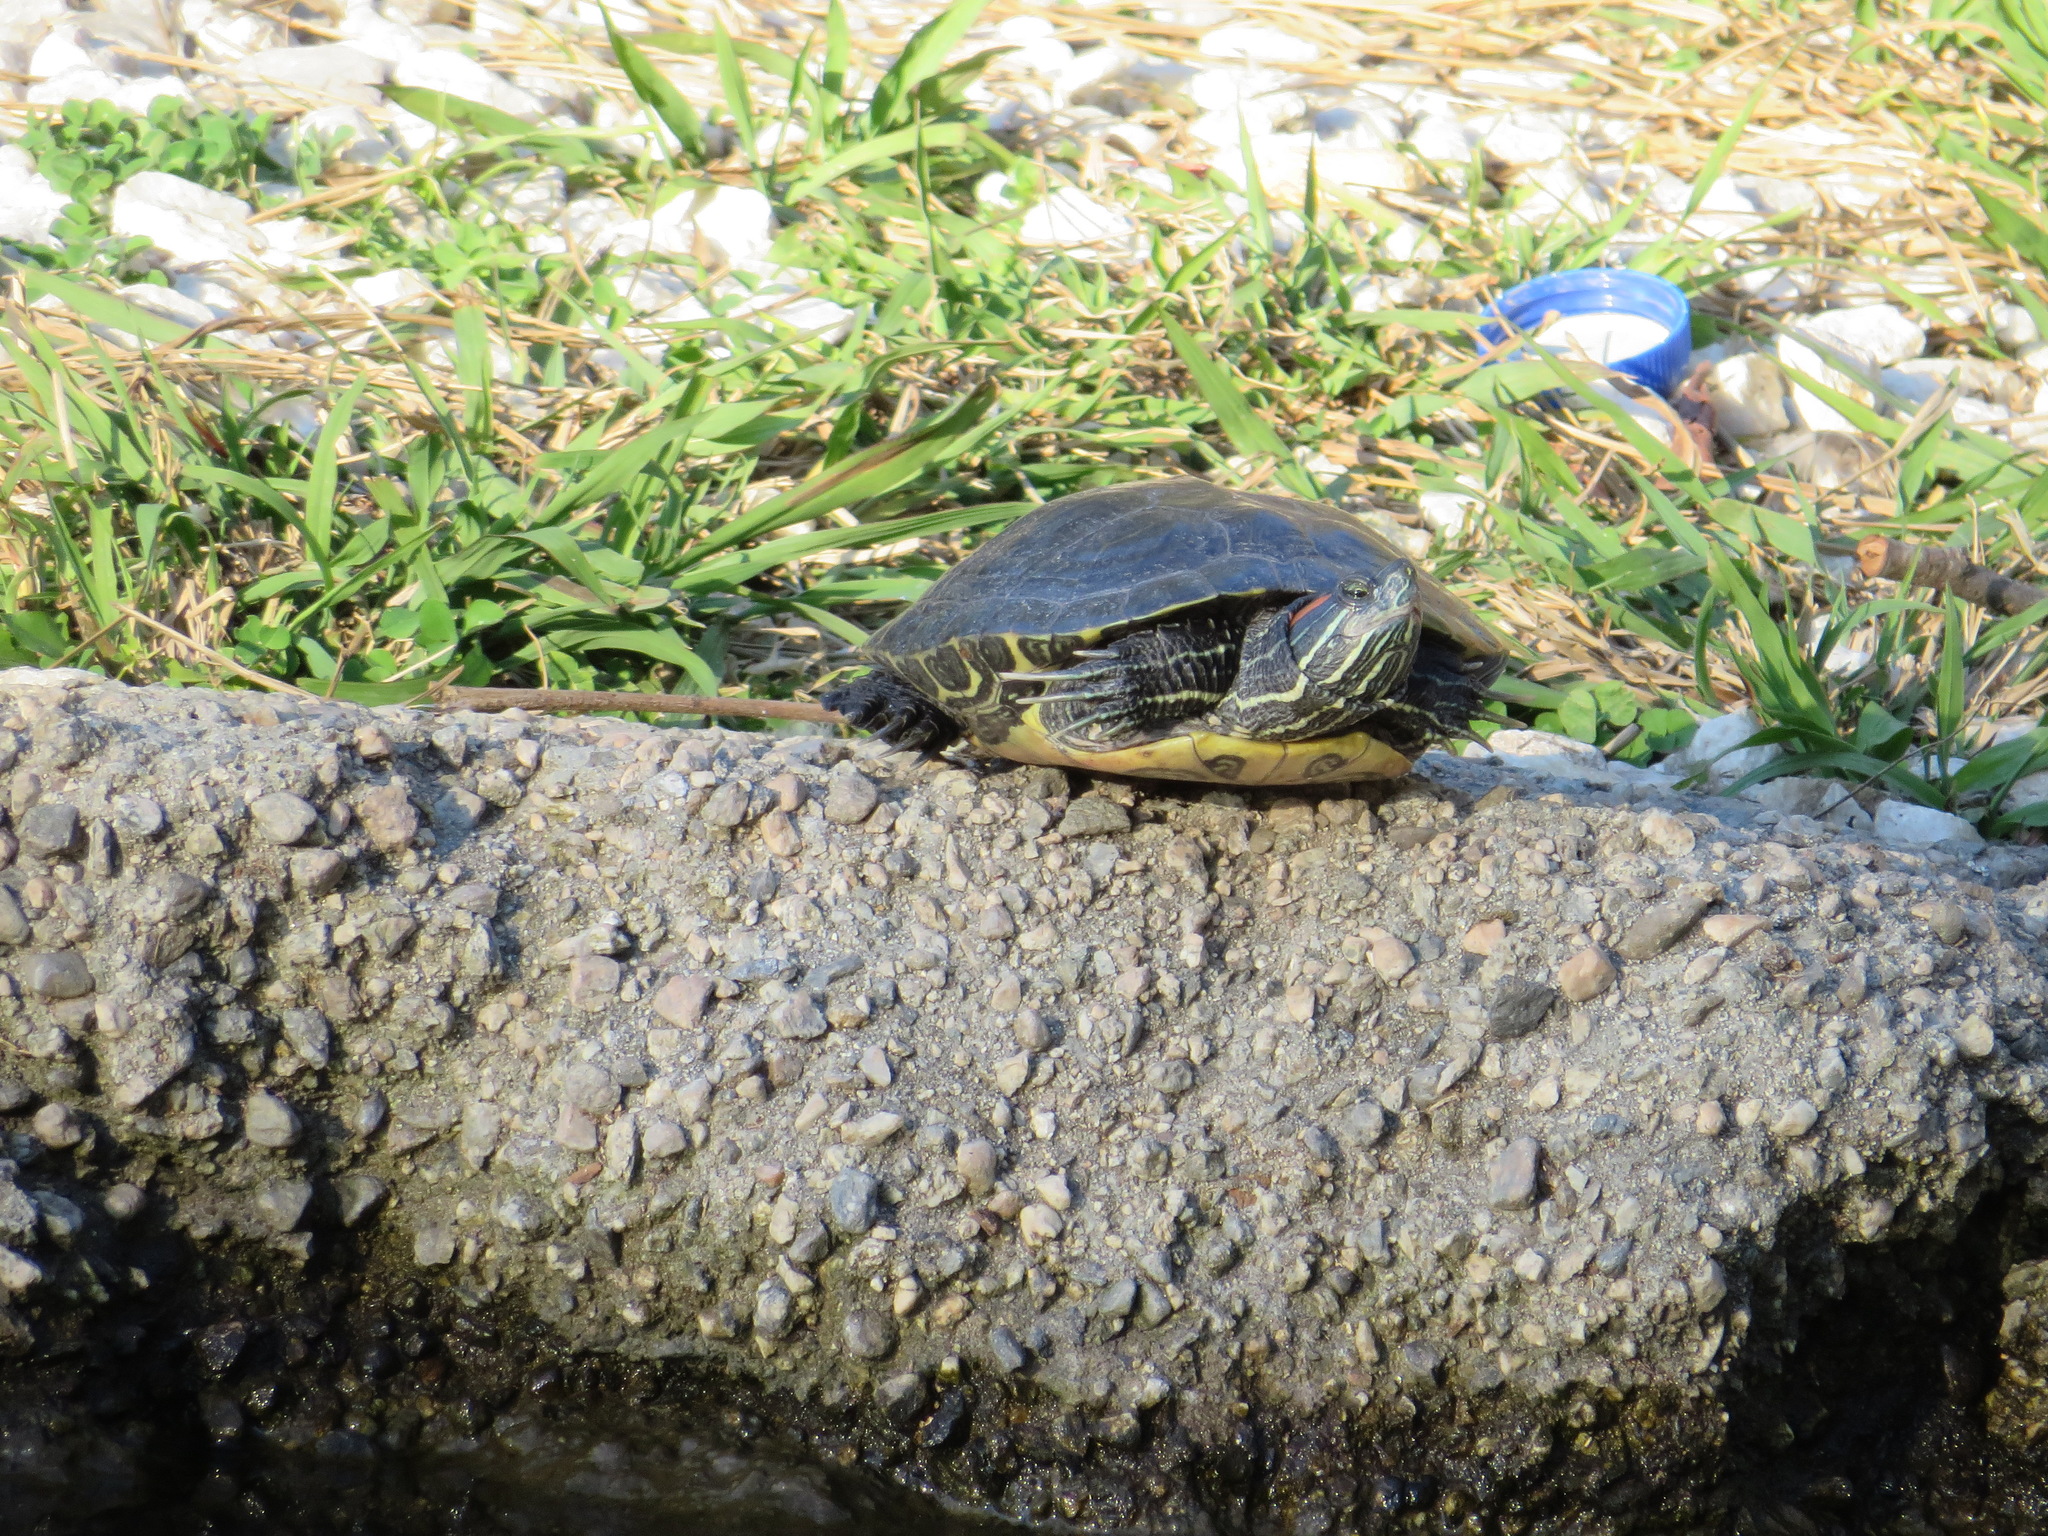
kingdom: Animalia
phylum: Chordata
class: Testudines
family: Emydidae
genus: Trachemys
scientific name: Trachemys scripta
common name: Slider
